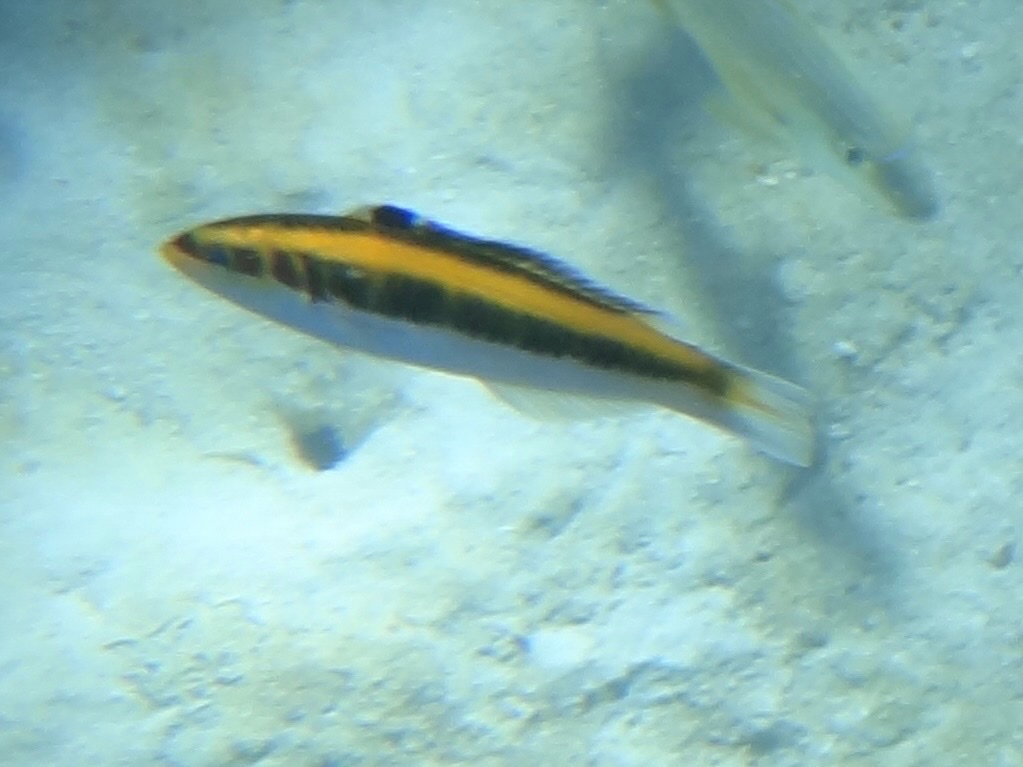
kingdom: Animalia
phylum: Chordata
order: Perciformes
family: Labridae
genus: Thalassoma
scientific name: Thalassoma bifasciatum
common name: Bluehead wrasse
